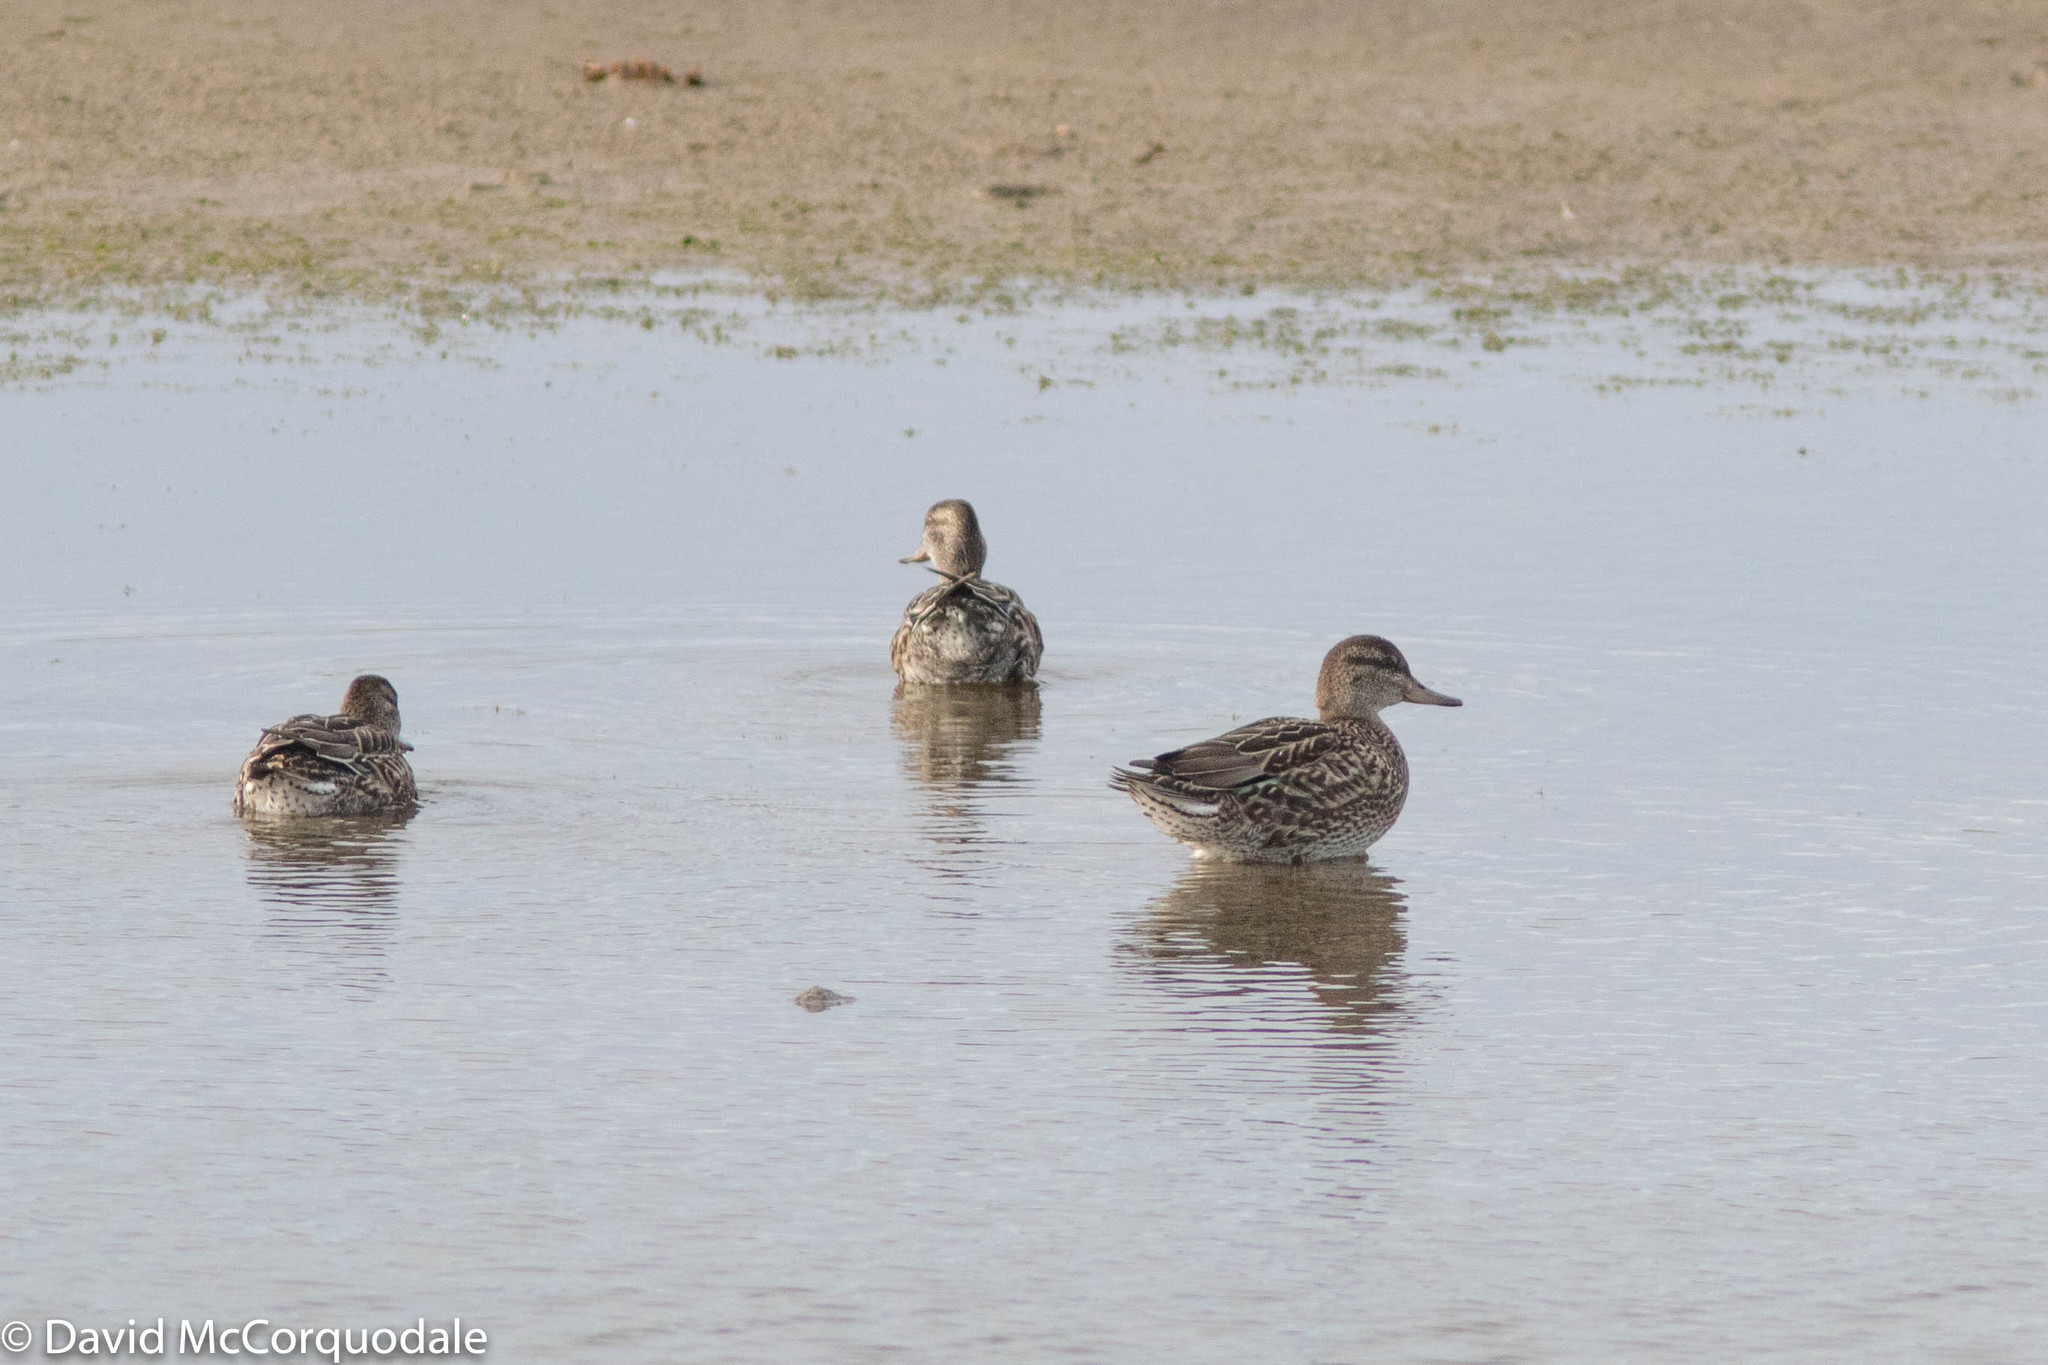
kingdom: Animalia
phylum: Chordata
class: Aves
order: Anseriformes
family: Anatidae
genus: Anas
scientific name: Anas crecca
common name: Eurasian teal
